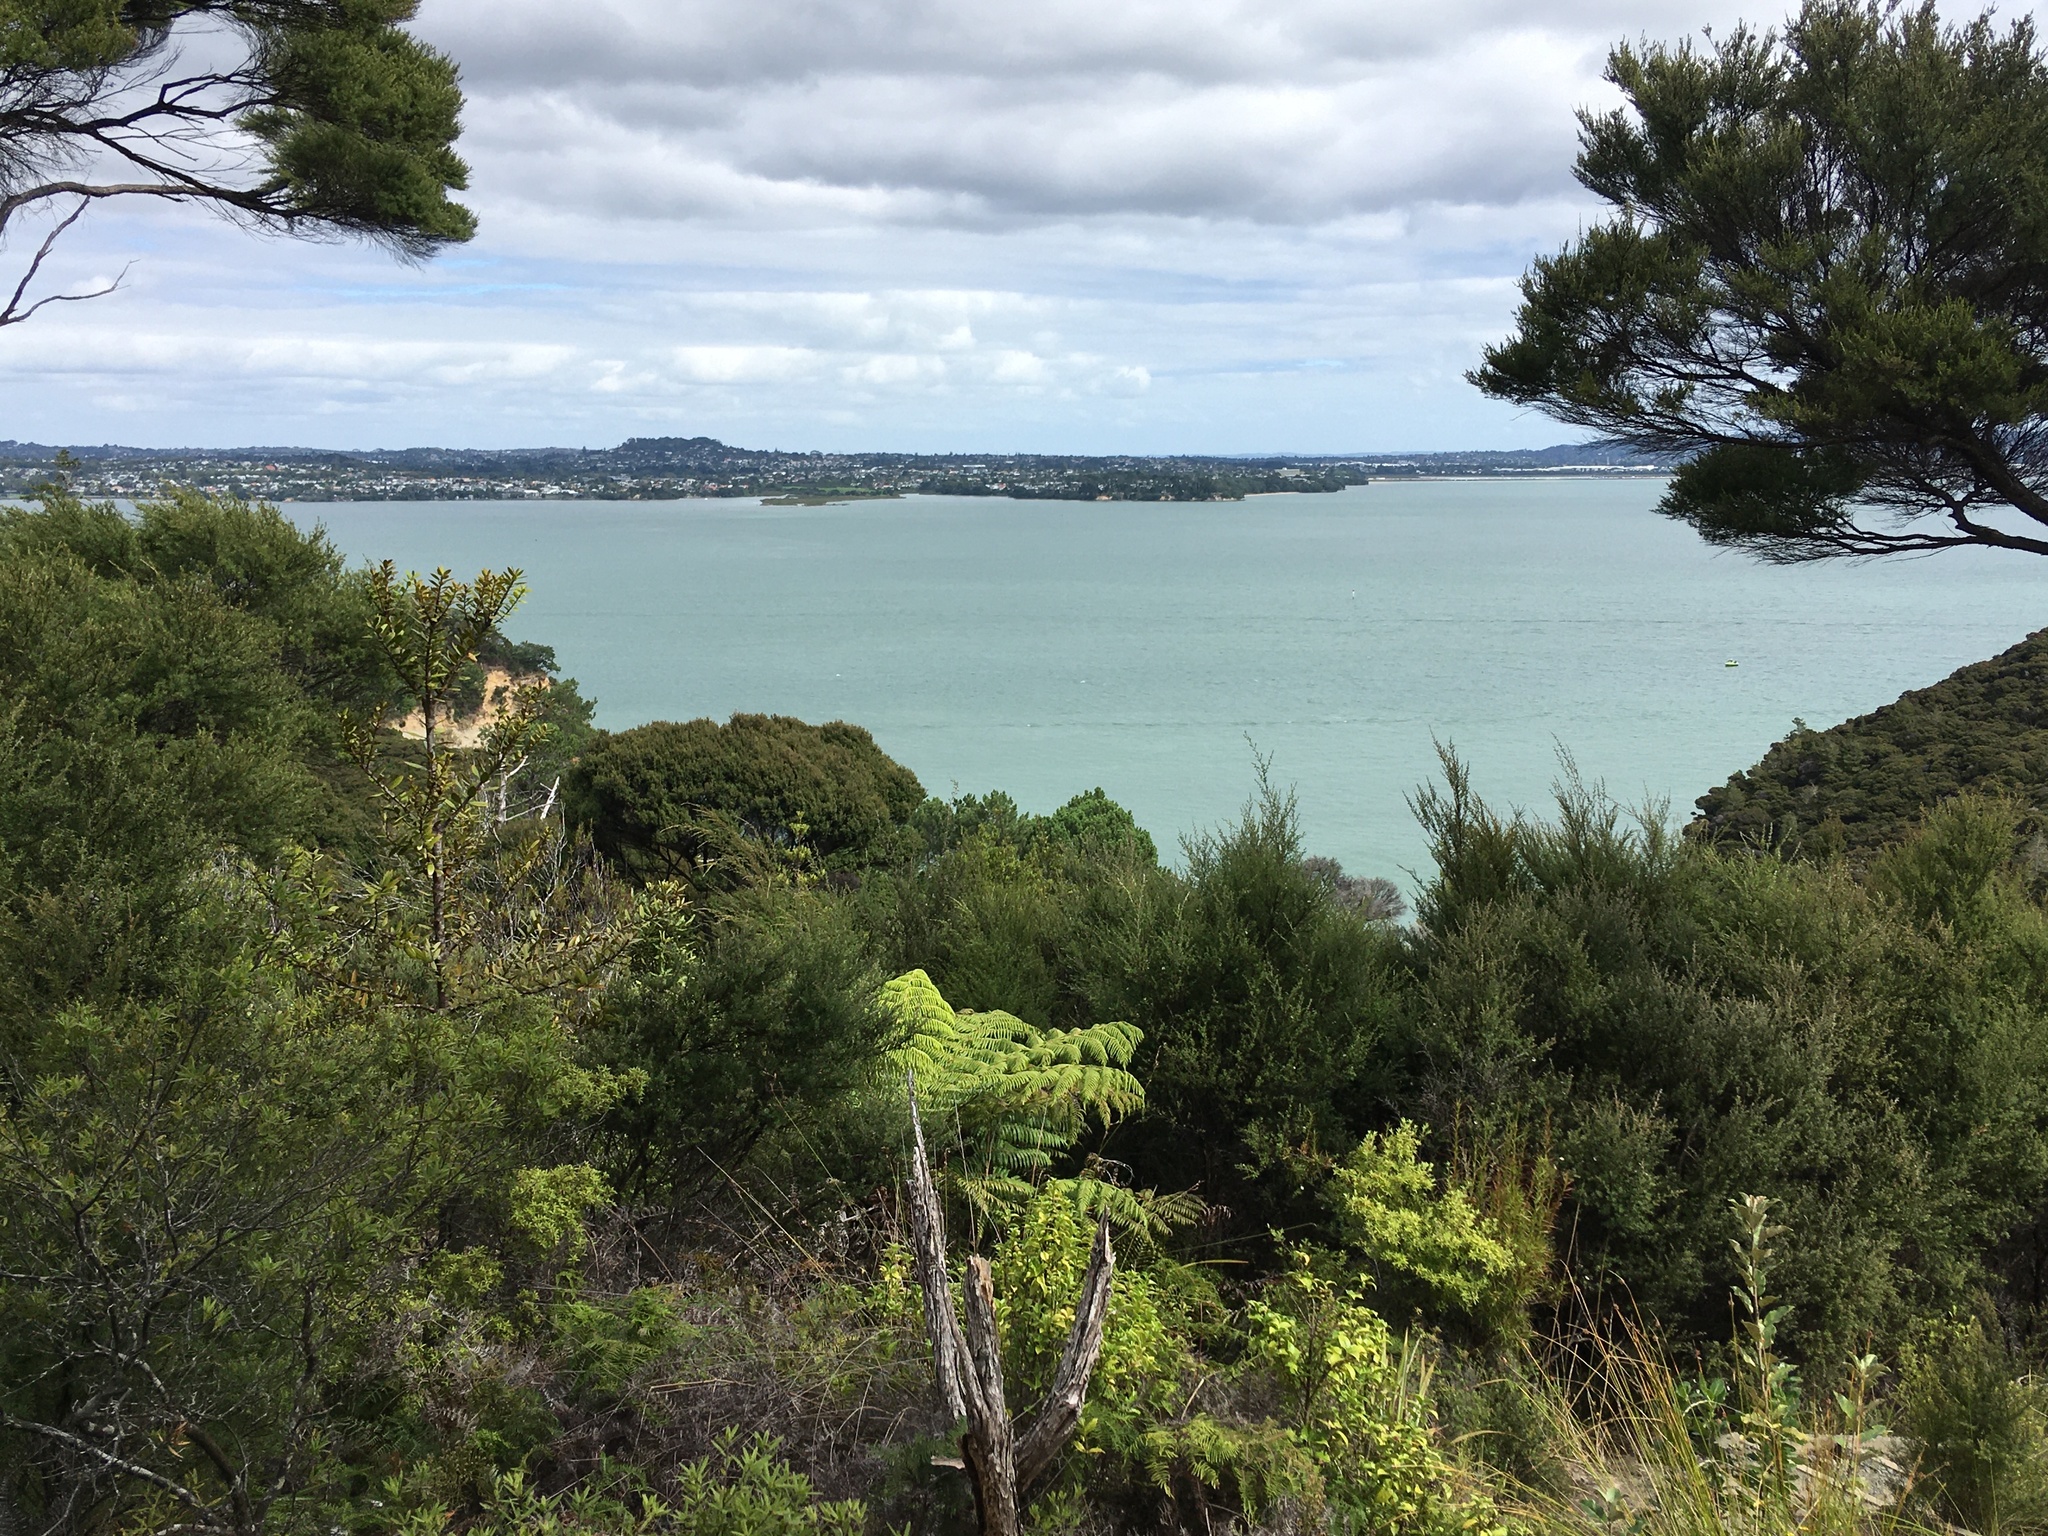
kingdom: Plantae
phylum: Tracheophyta
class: Pinopsida
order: Pinales
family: Araucariaceae
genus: Agathis
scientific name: Agathis australis
